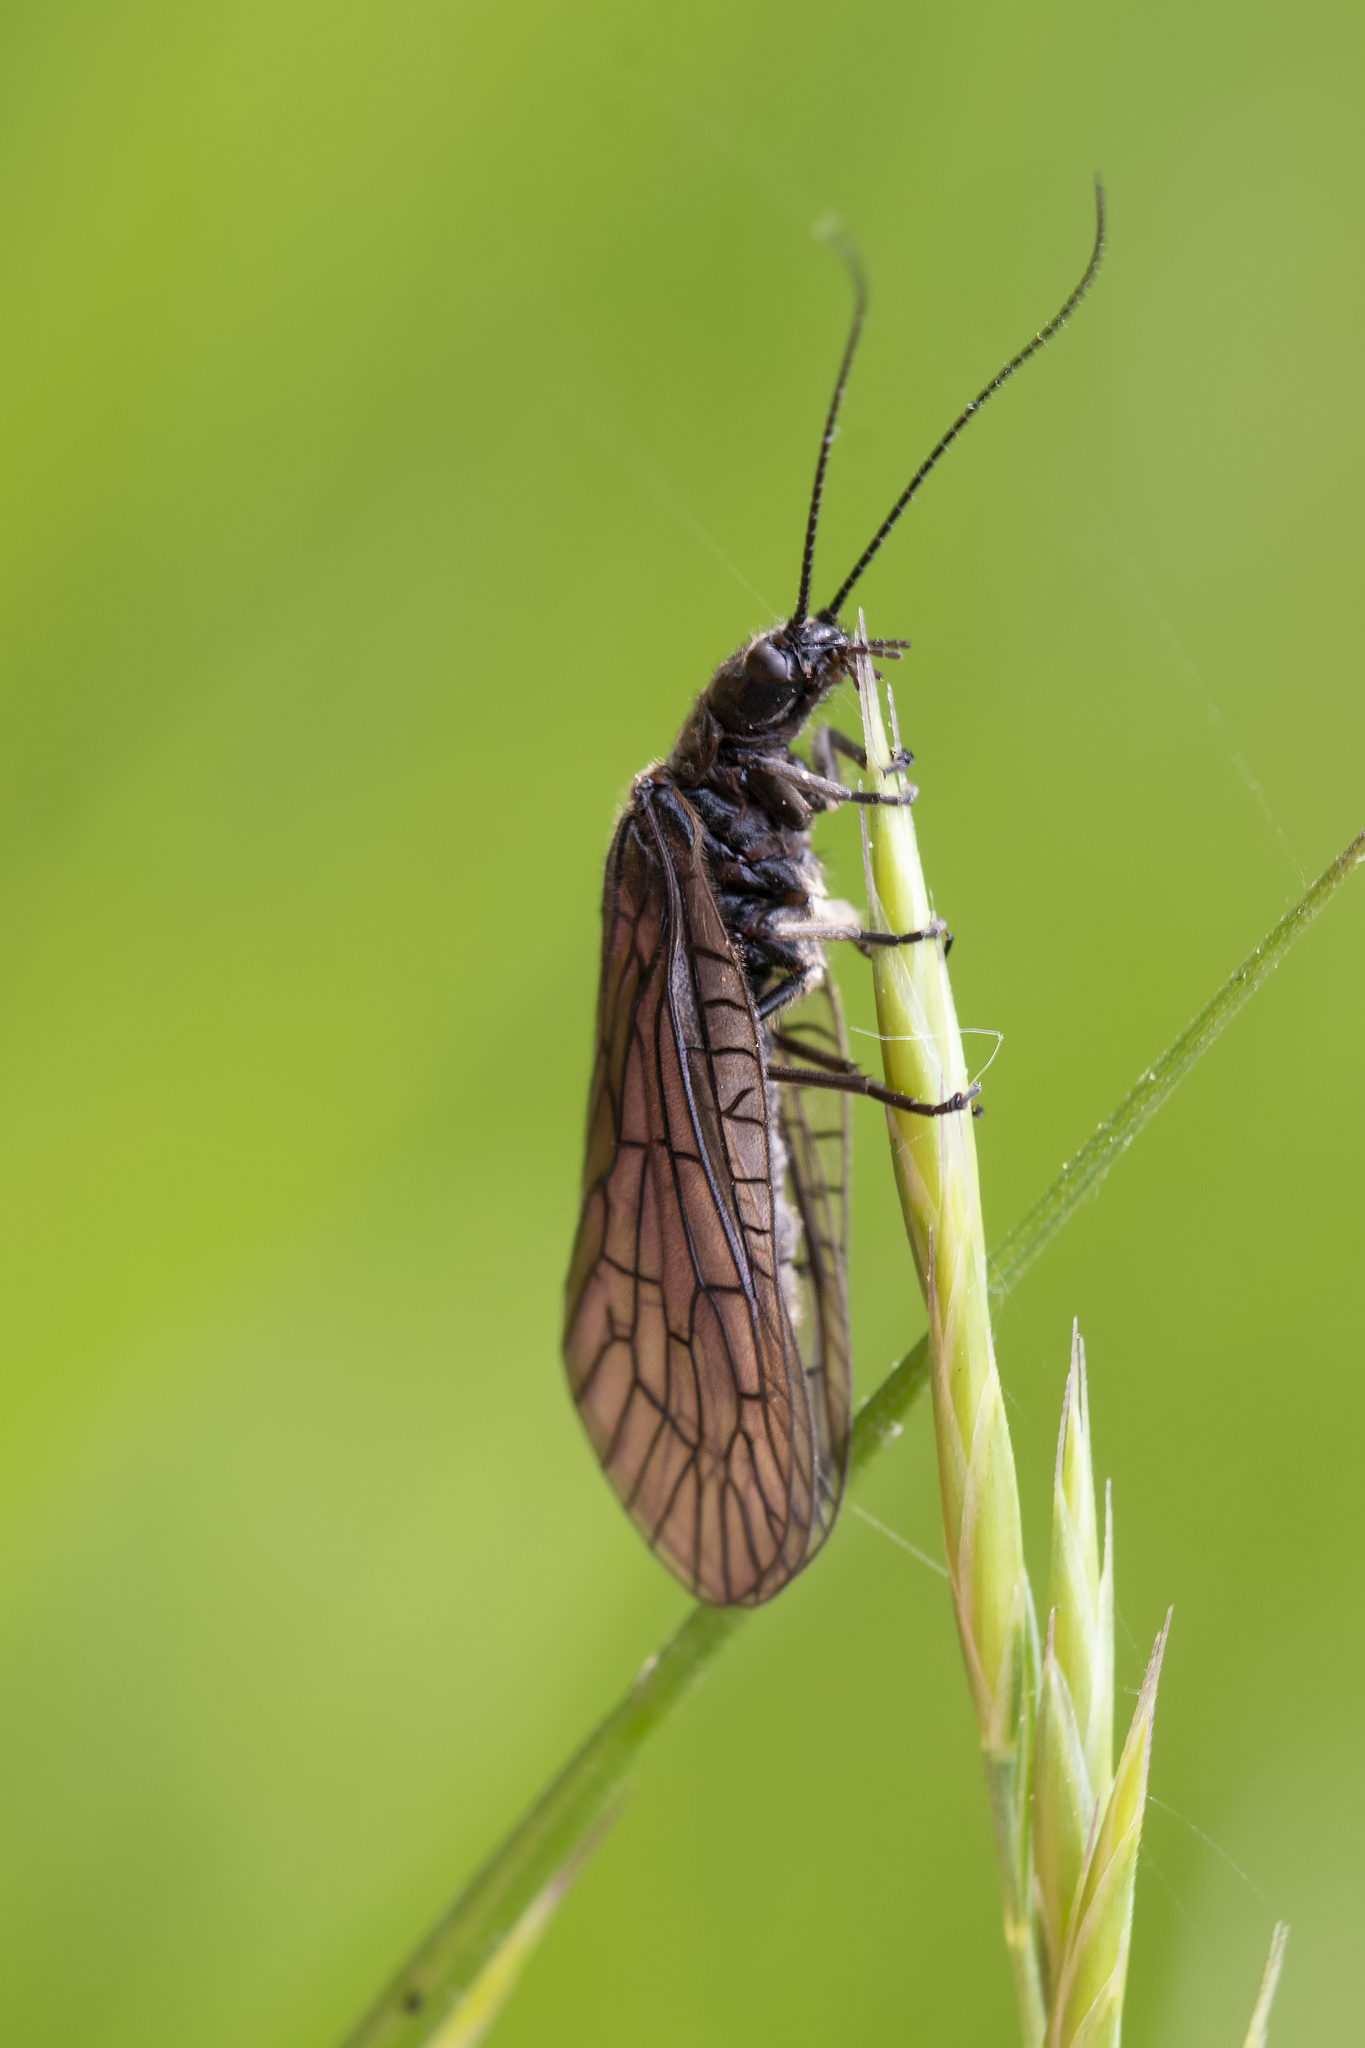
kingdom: Animalia
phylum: Arthropoda
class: Insecta
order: Megaloptera
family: Sialidae
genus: Sialis
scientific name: Sialis
